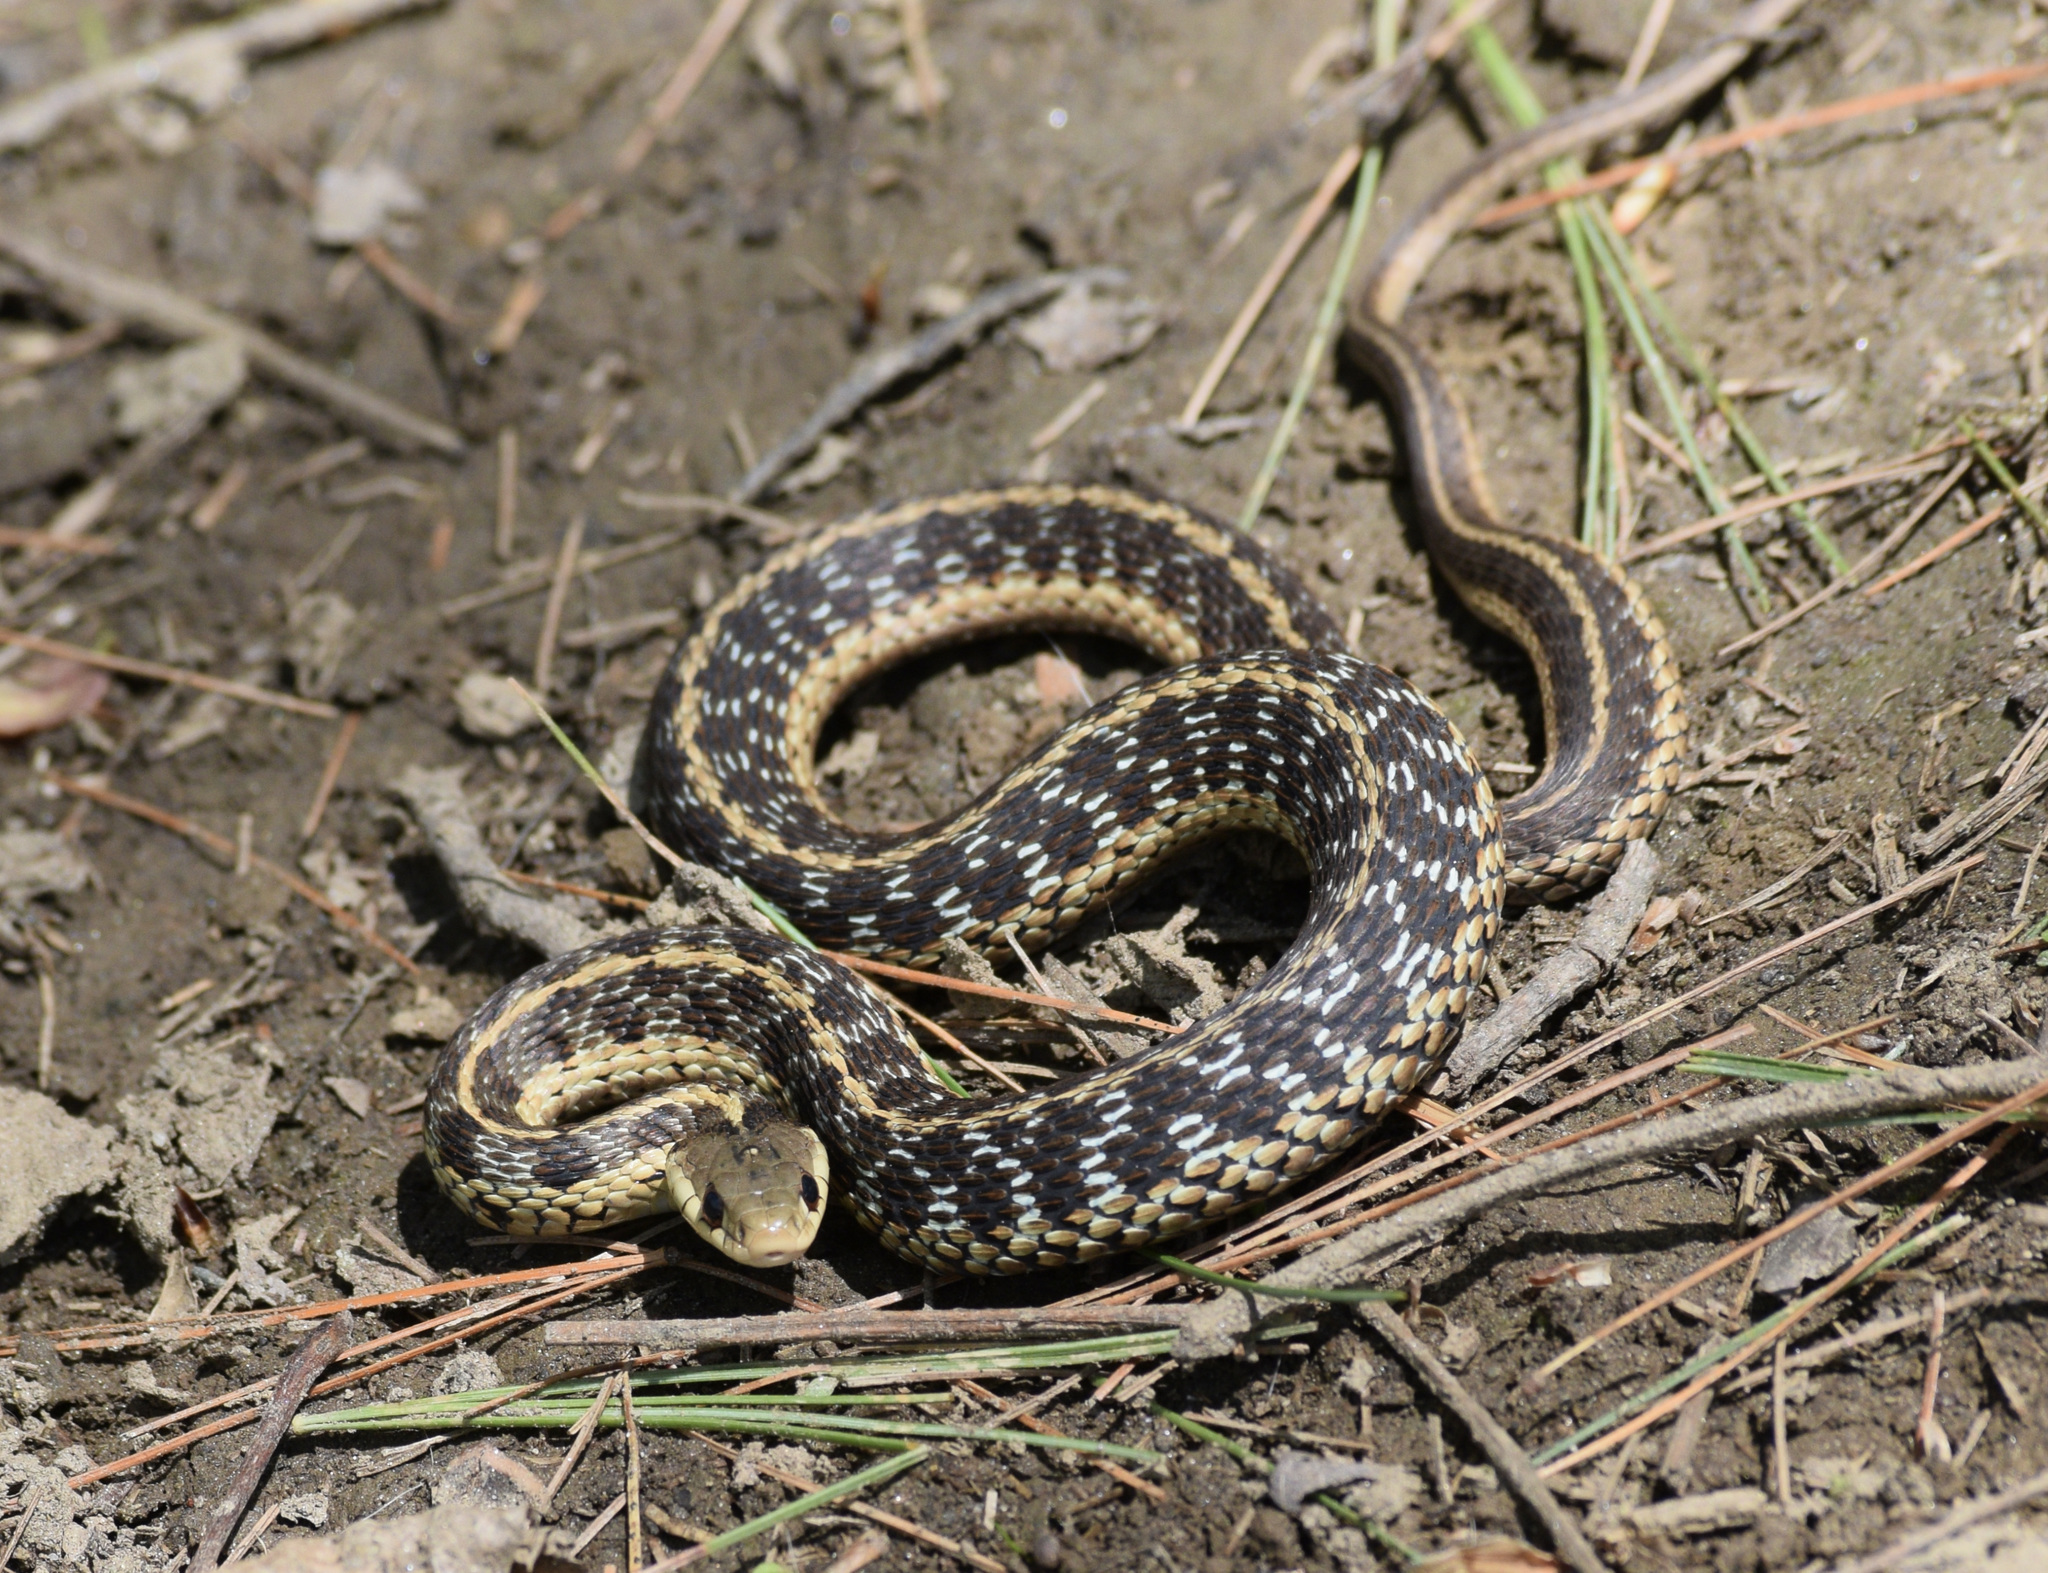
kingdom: Animalia
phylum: Chordata
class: Squamata
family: Colubridae
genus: Thamnophis
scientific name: Thamnophis sirtalis
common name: Common garter snake
